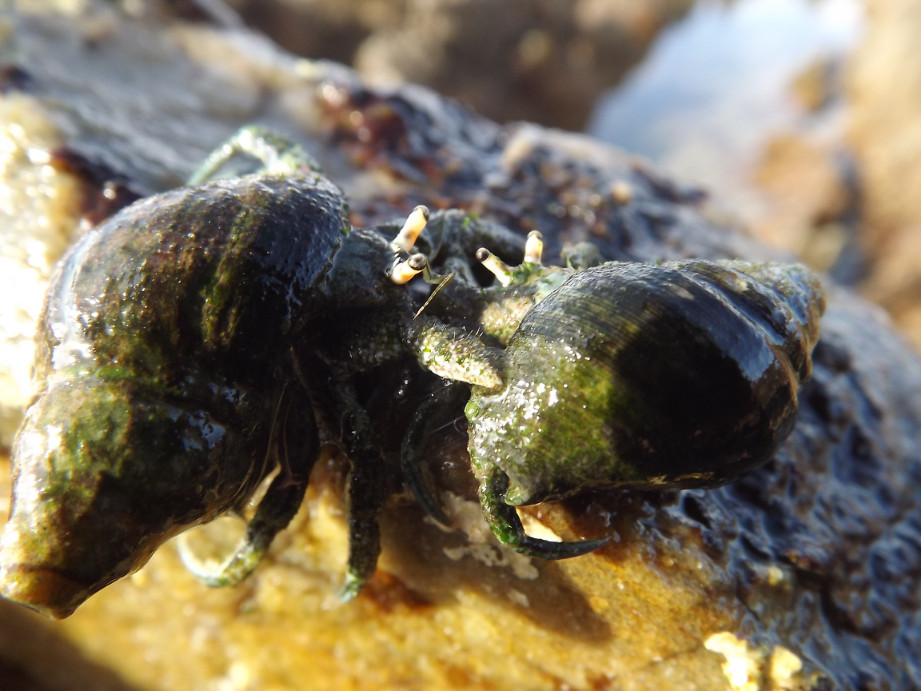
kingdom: Animalia
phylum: Arthropoda
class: Malacostraca
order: Decapoda
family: Diogenidae
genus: Diogenes
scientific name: Diogenes brevirostris
